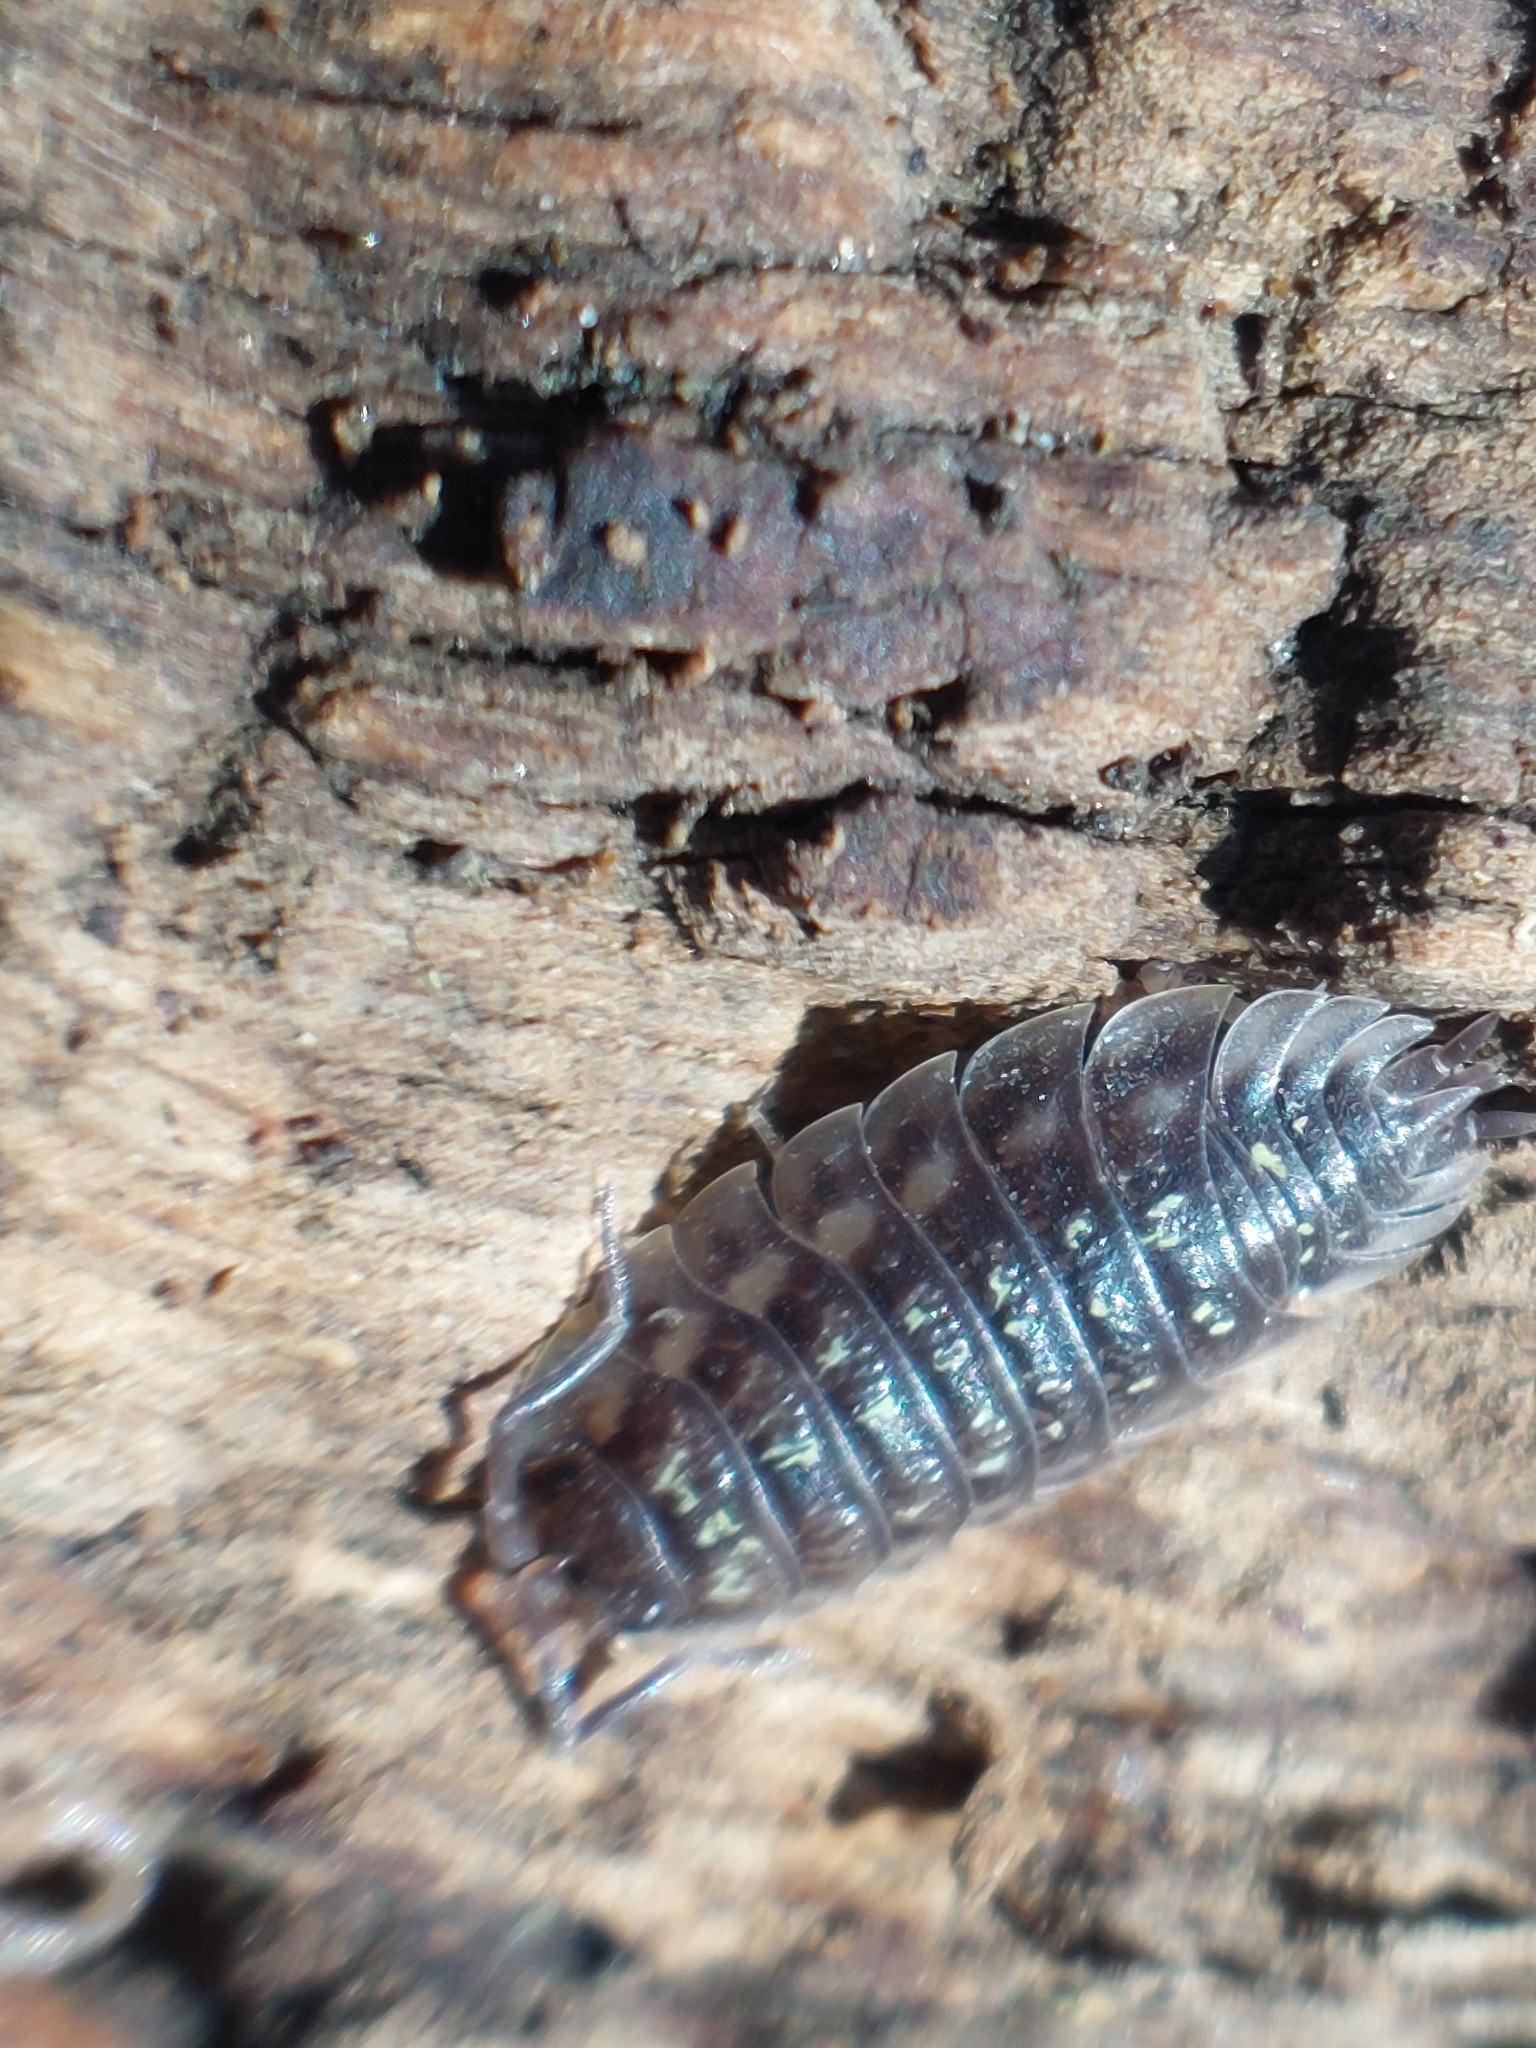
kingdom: Animalia
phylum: Arthropoda
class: Malacostraca
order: Isopoda
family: Oniscidae
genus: Oniscus
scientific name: Oniscus asellus
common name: Common shiny woodlouse
